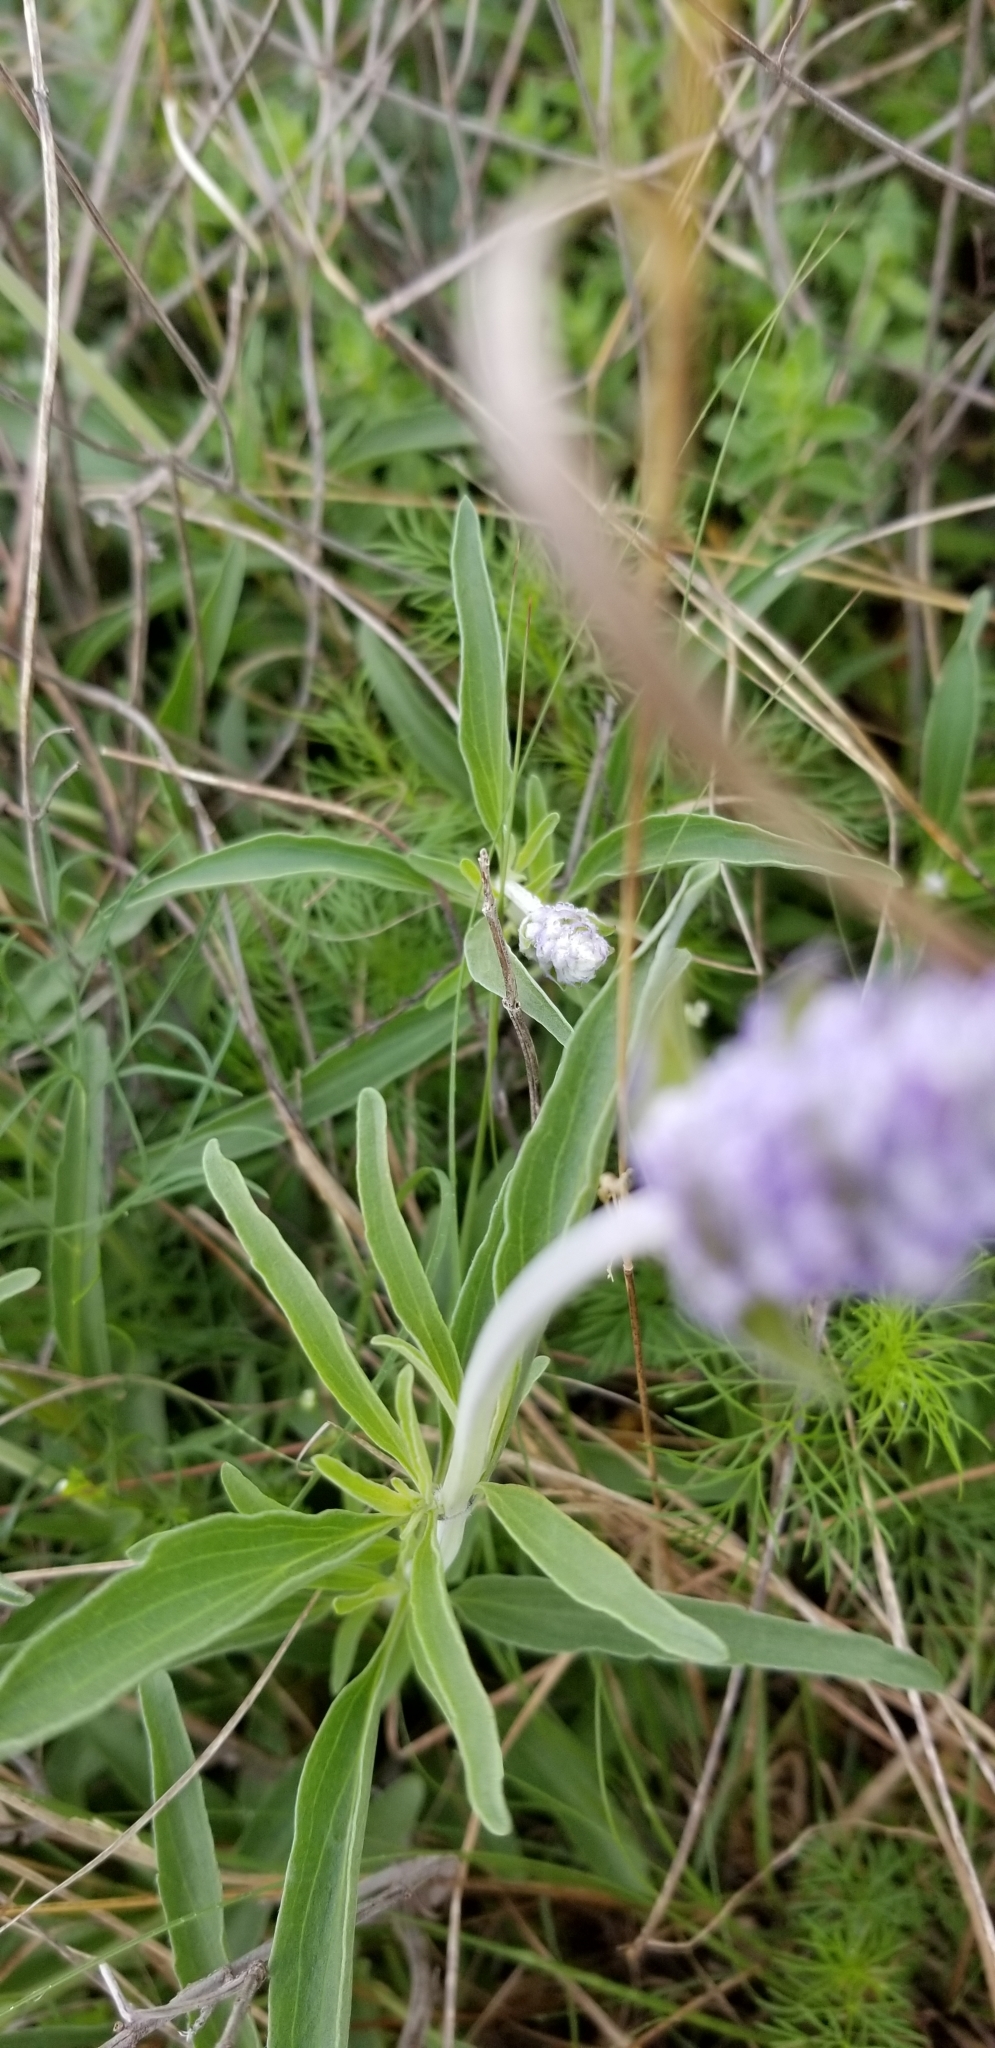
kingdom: Plantae
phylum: Tracheophyta
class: Magnoliopsida
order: Lamiales
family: Lamiaceae
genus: Salvia
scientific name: Salvia farinacea
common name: Mealy sage
